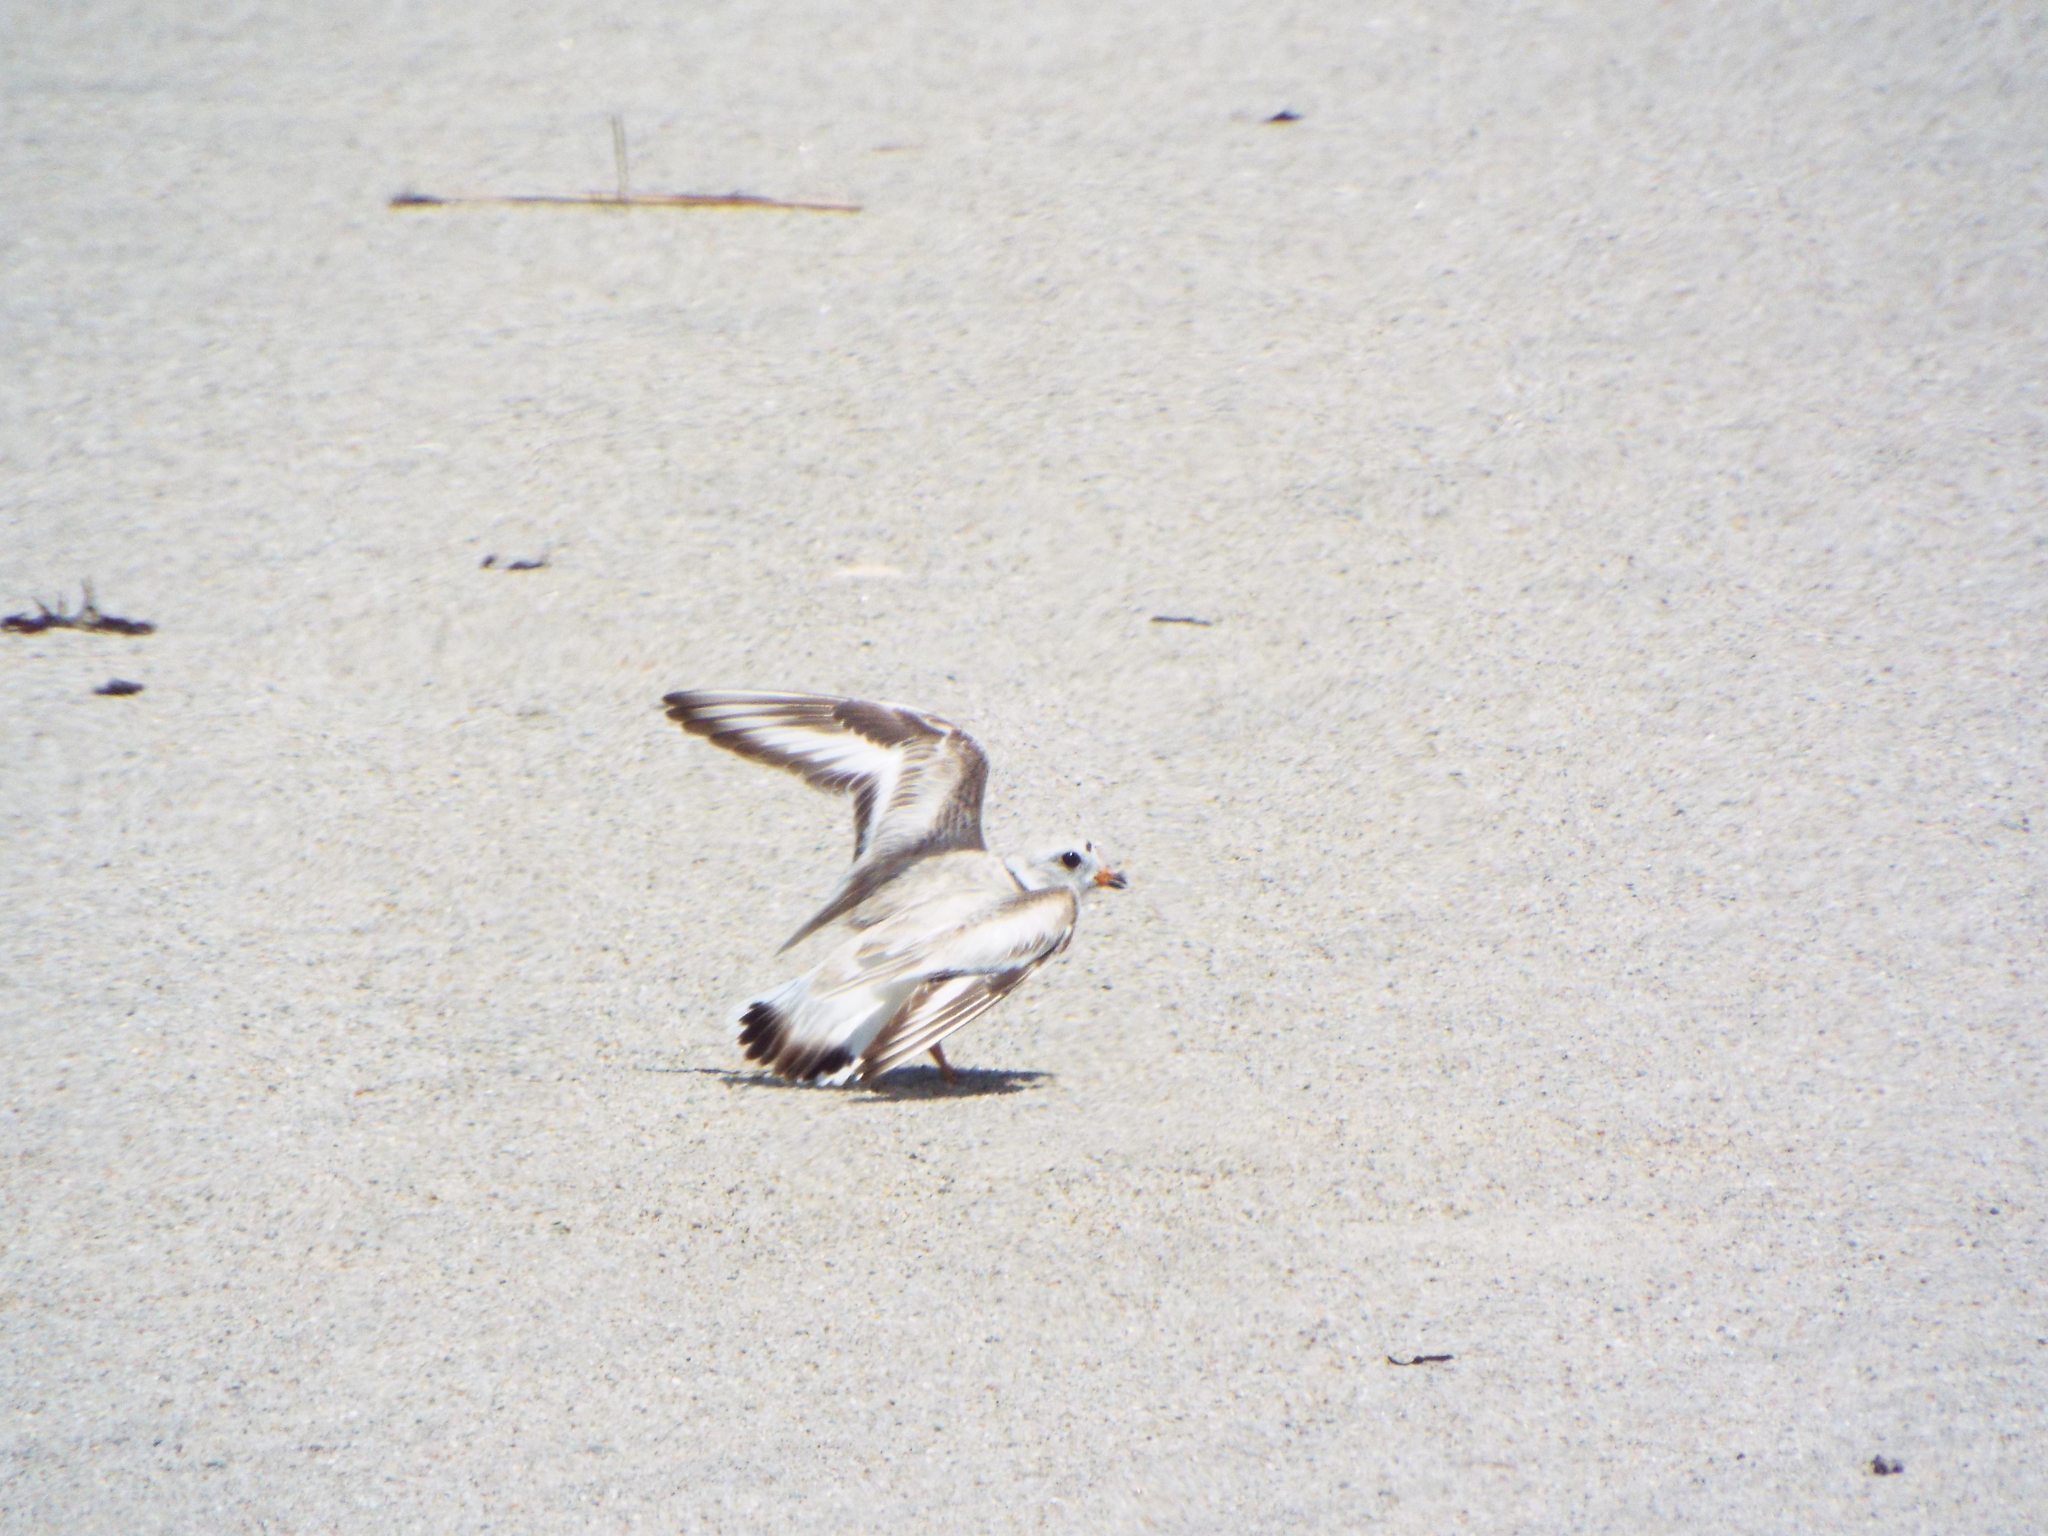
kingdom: Animalia
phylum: Chordata
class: Aves
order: Charadriiformes
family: Charadriidae
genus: Charadrius
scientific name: Charadrius melodus
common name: Piping plover
